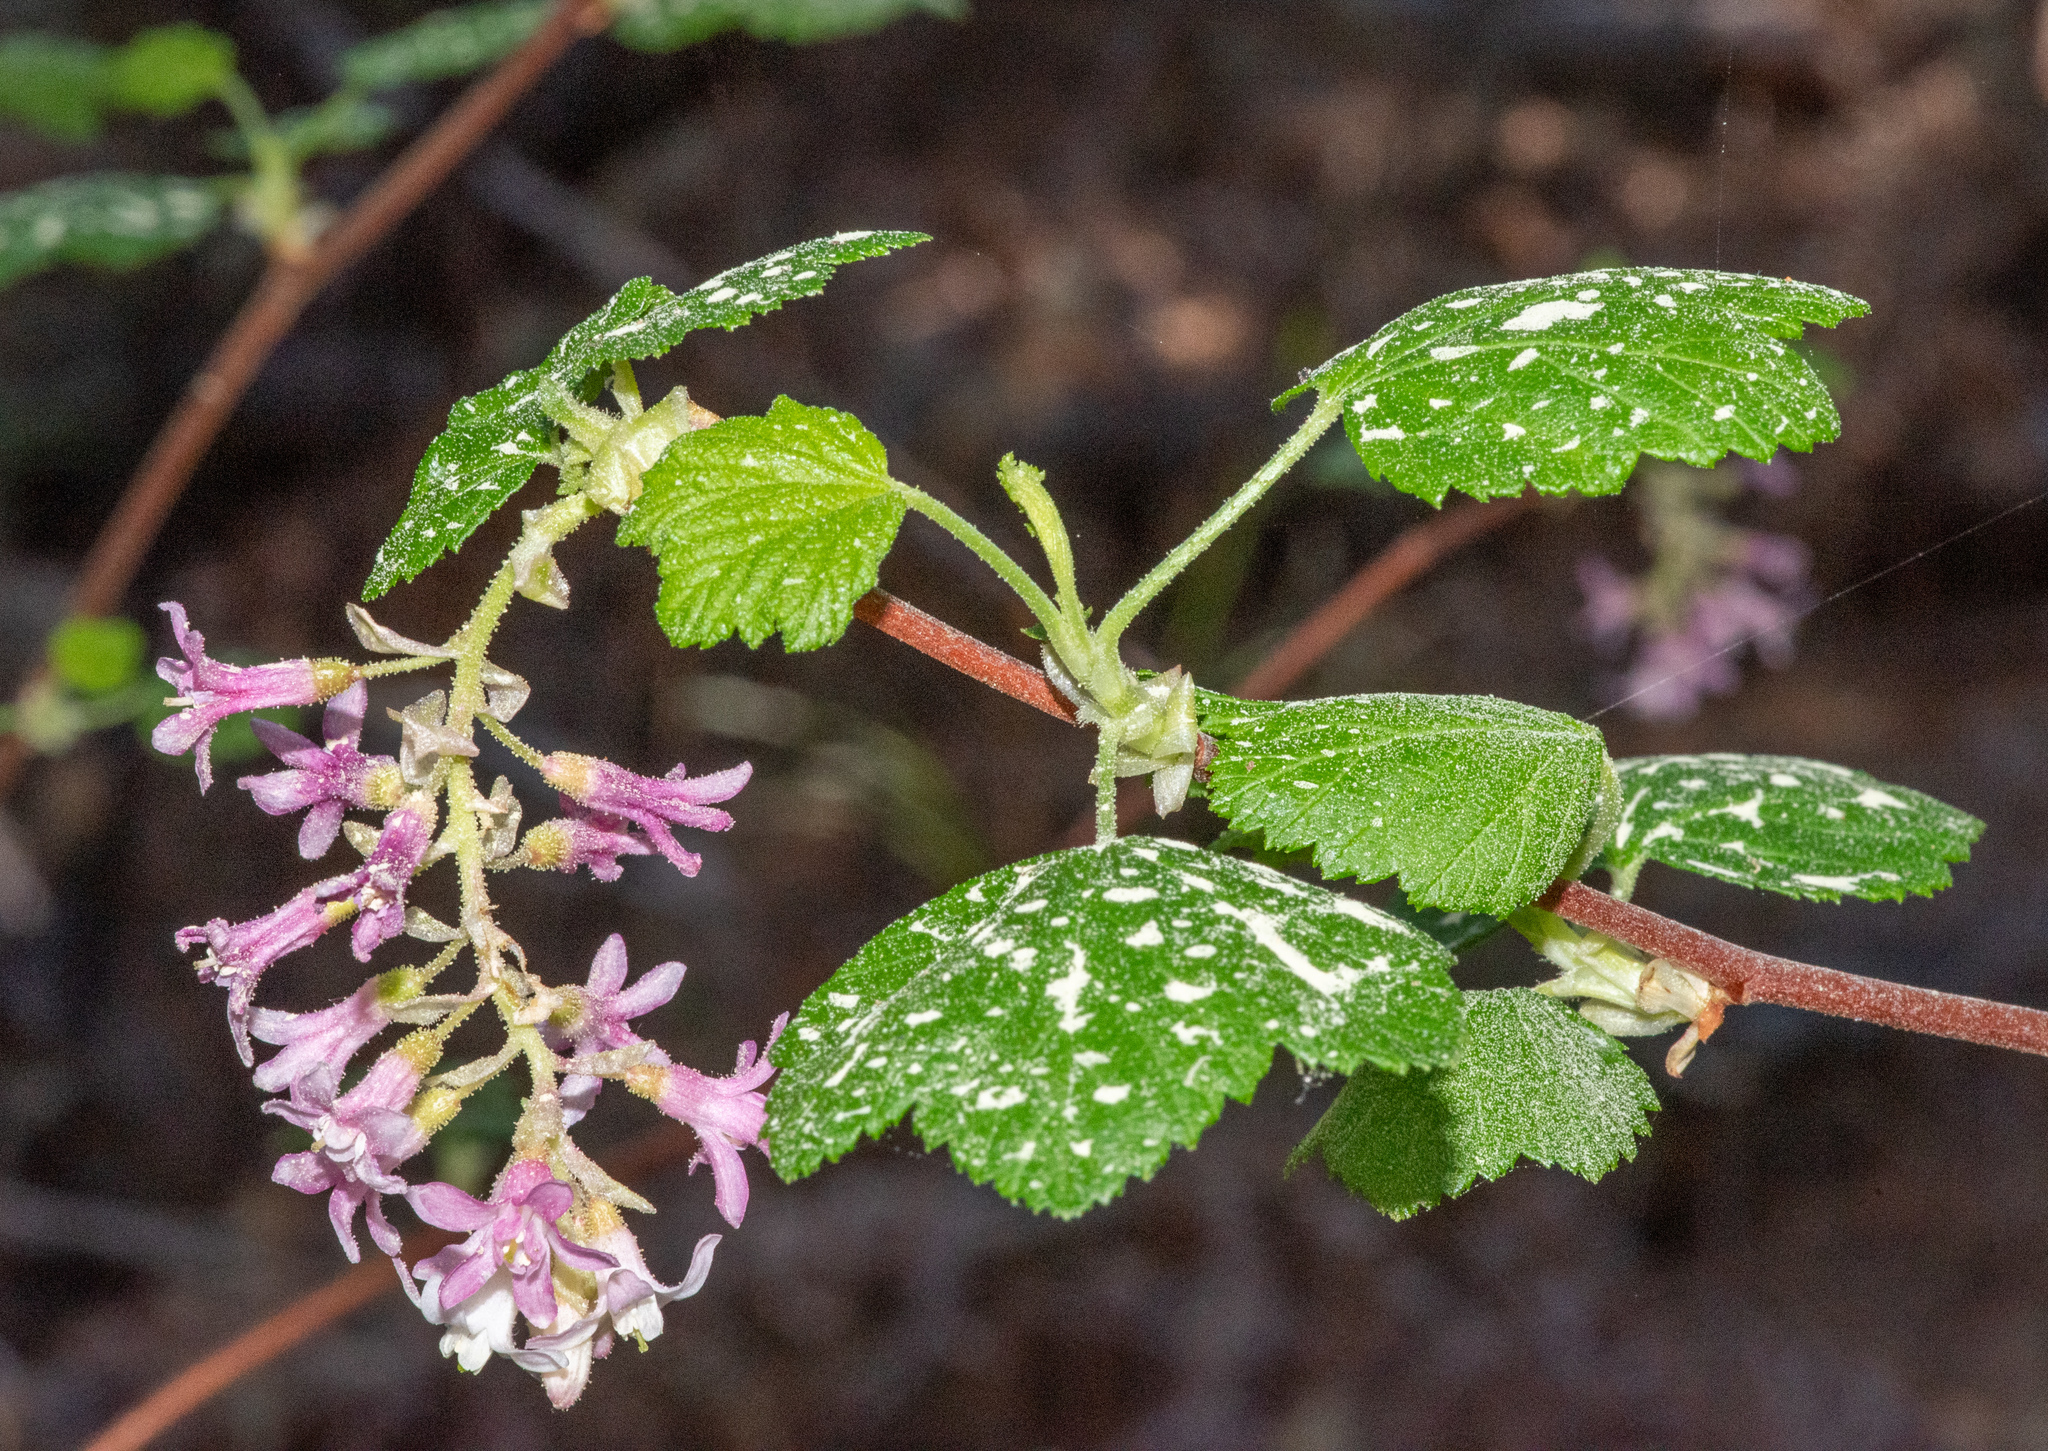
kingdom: Plantae
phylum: Tracheophyta
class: Magnoliopsida
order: Saxifragales
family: Grossulariaceae
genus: Ribes
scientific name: Ribes sanguineum
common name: Flowering currant
